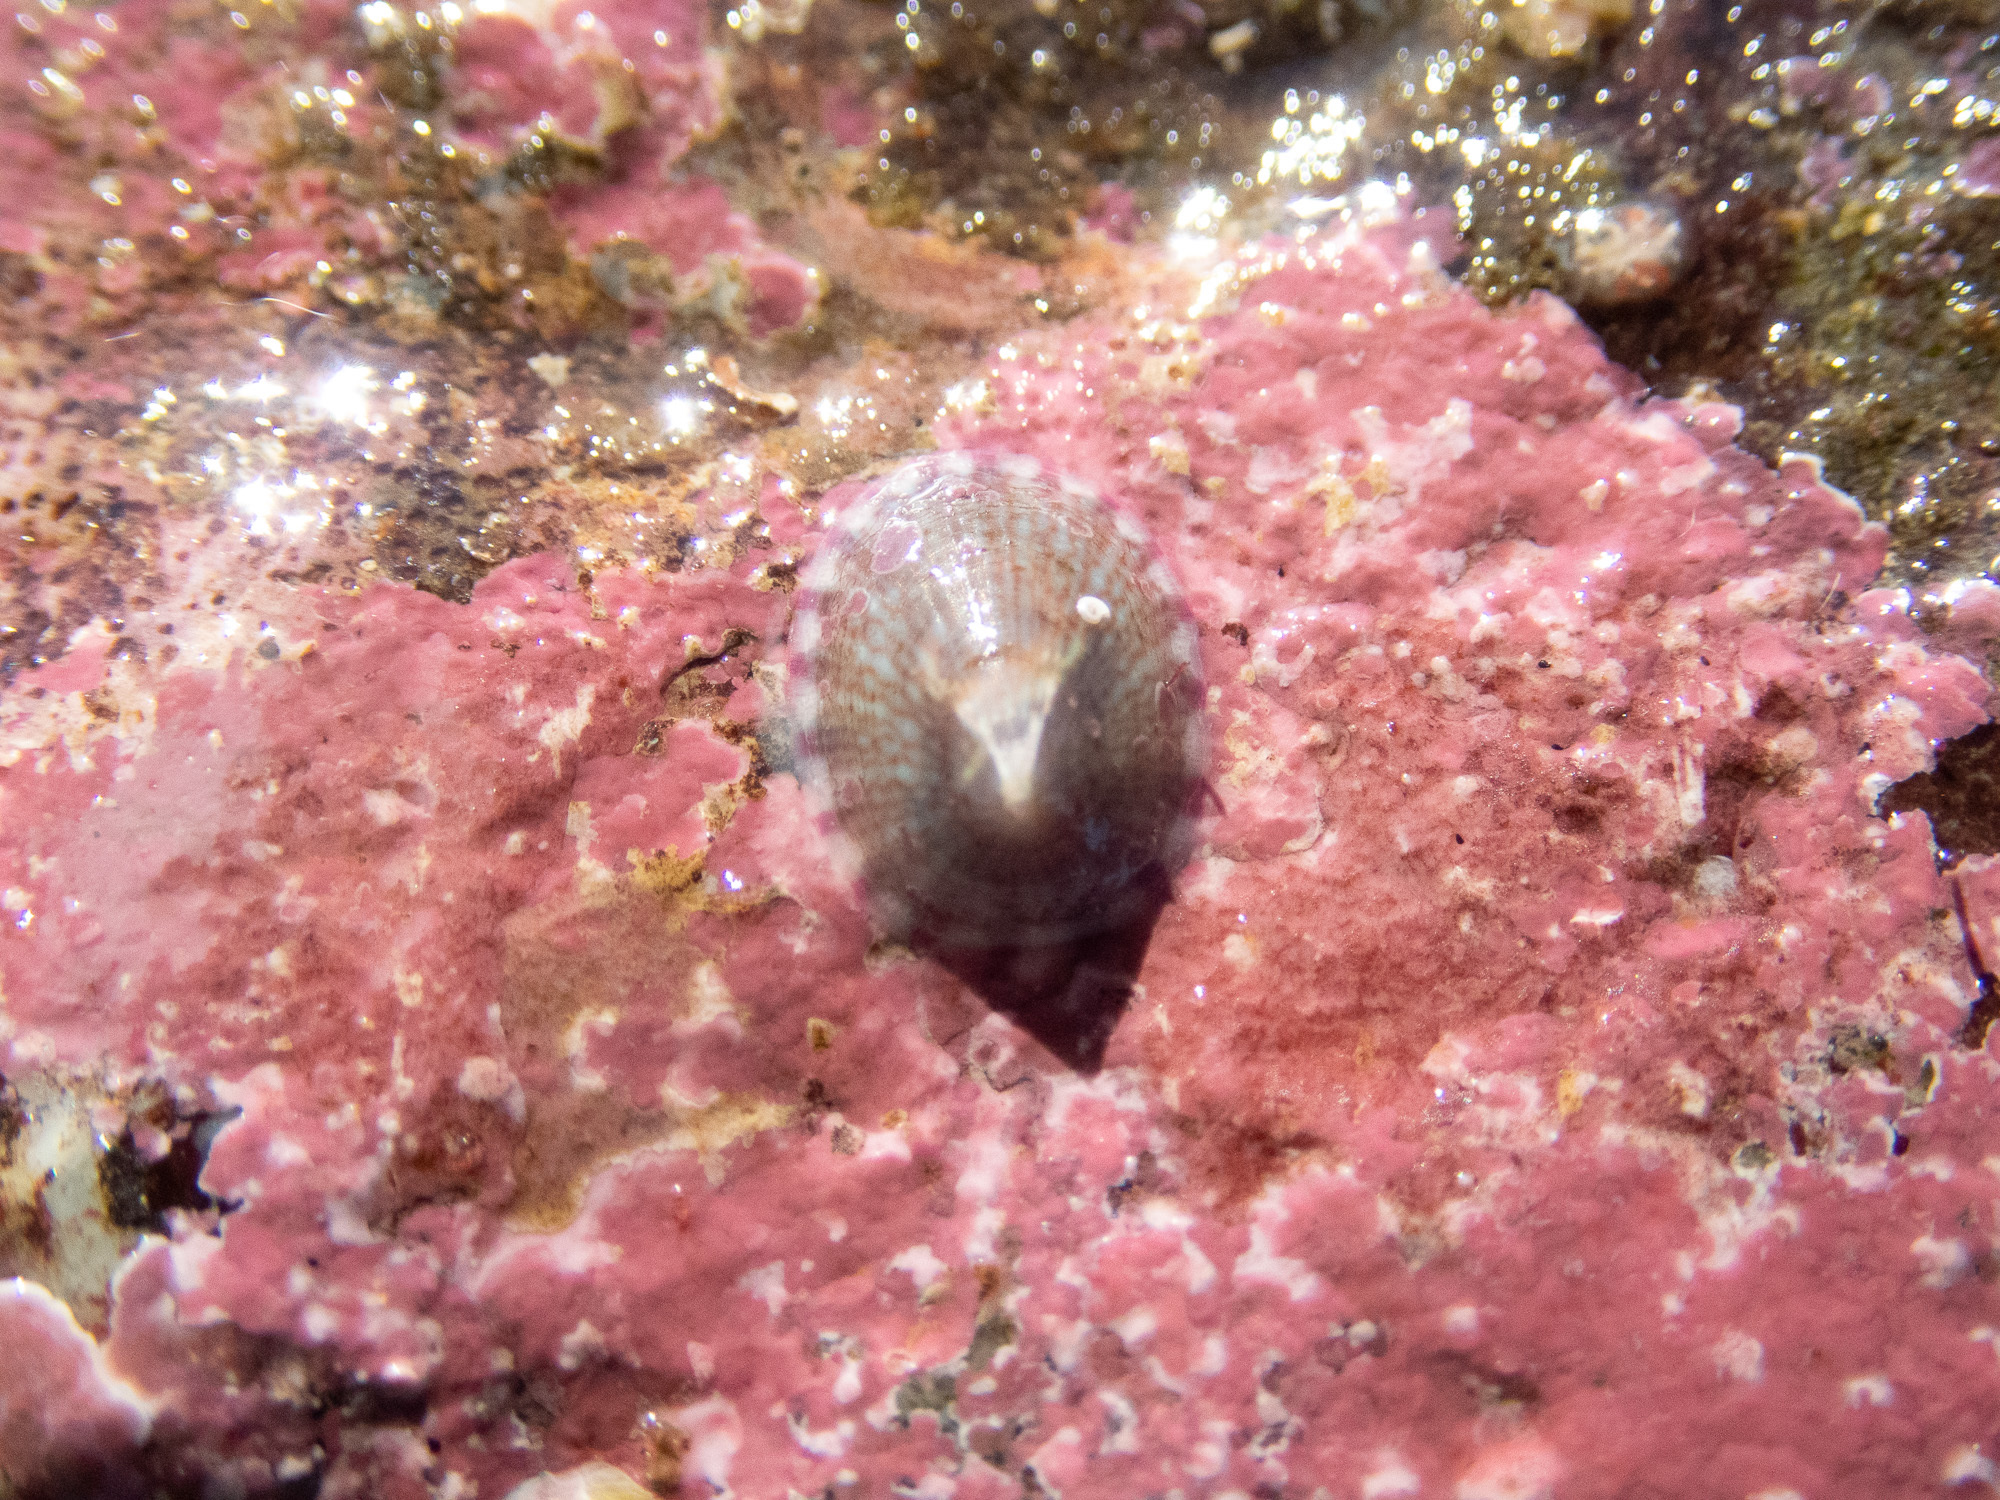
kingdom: Animalia
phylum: Mollusca
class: Gastropoda
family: Lottiidae
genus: Tectura
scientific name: Tectura virginea
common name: White tortoiseshell limpet
